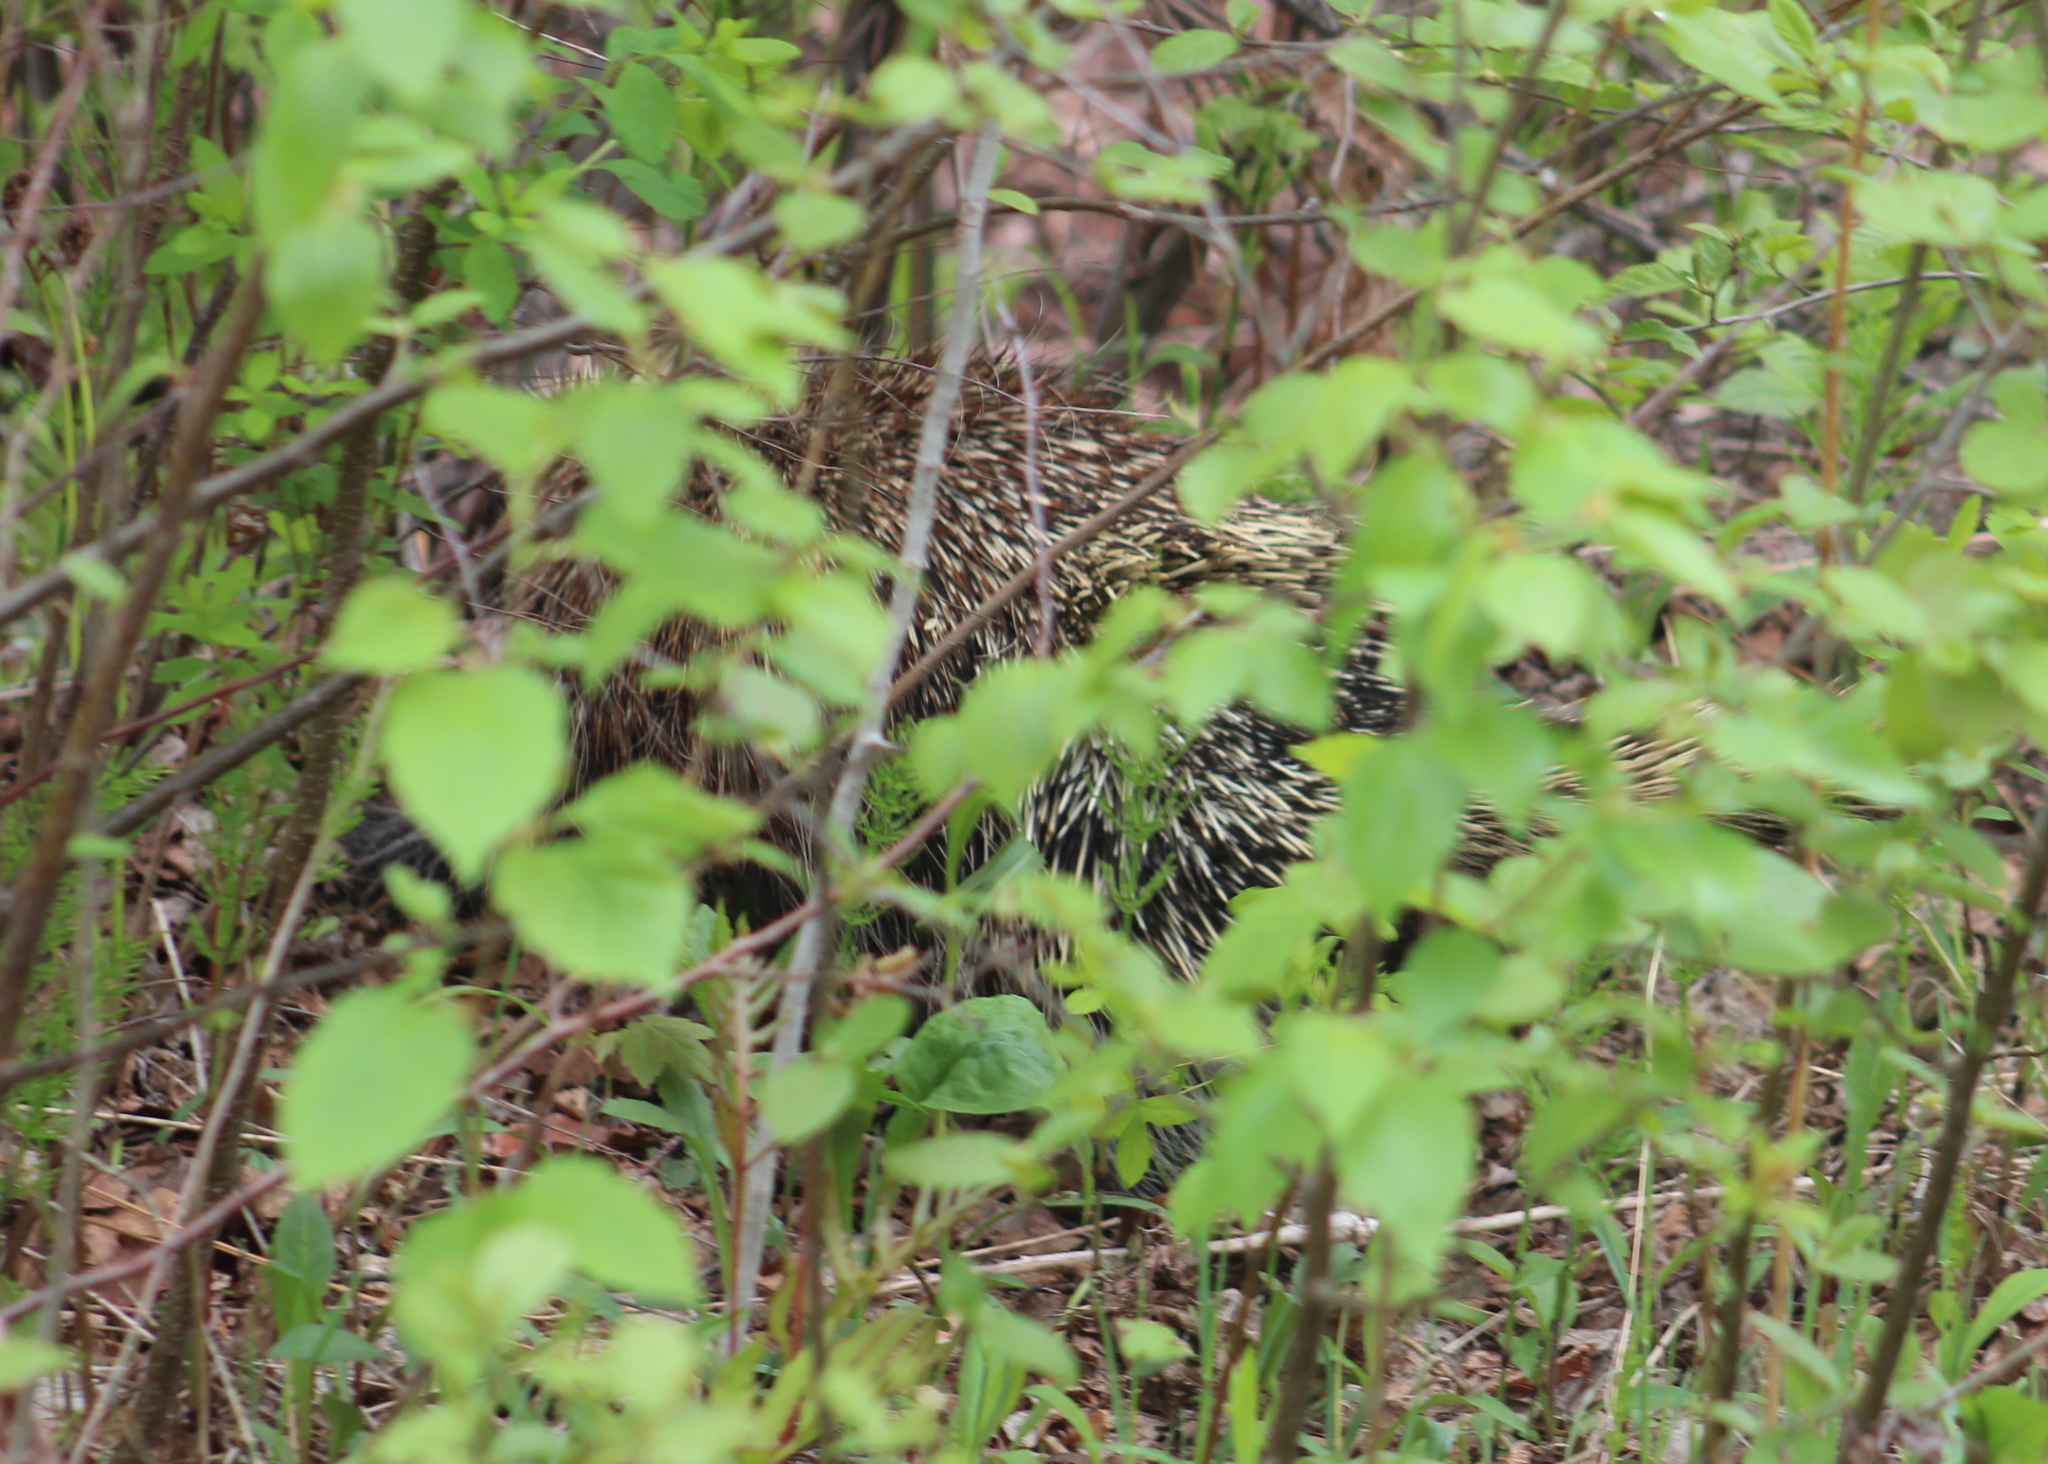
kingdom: Animalia
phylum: Chordata
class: Mammalia
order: Rodentia
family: Erethizontidae
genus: Erethizon
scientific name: Erethizon dorsatus
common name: North american porcupine
